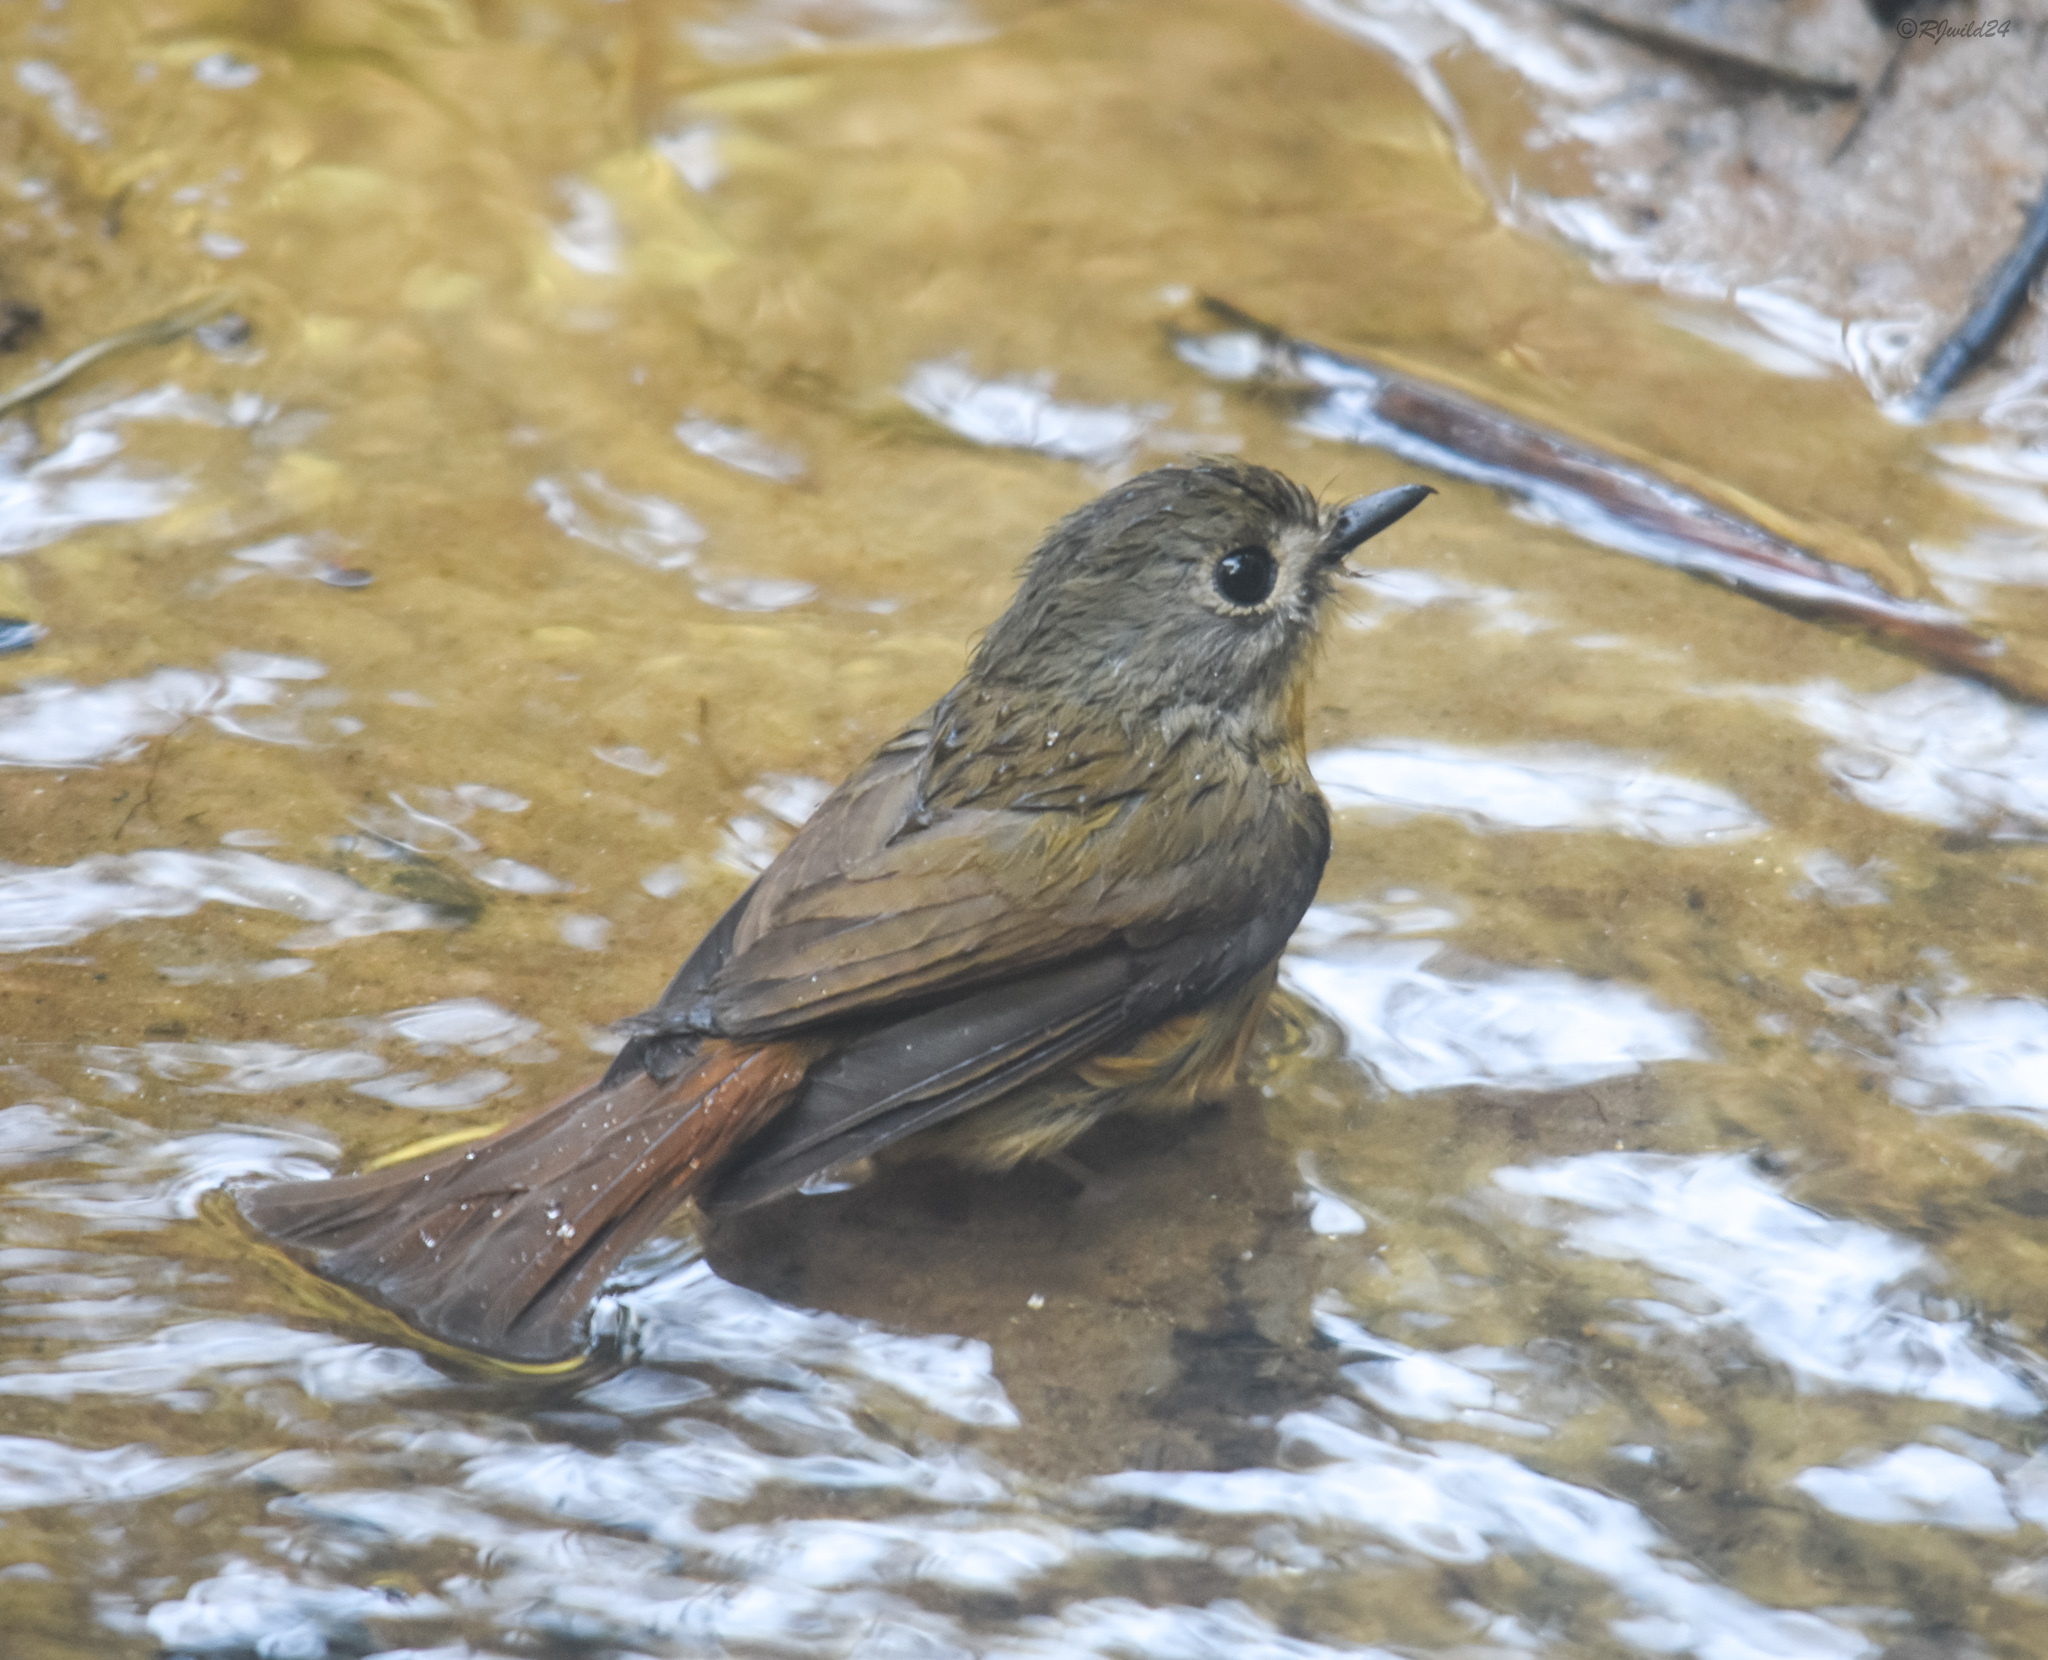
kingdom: Animalia
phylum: Chordata
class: Aves
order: Passeriformes
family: Muscicapidae
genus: Cyornis
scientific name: Cyornis poliogenys
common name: Pale-chinned blue flycatcher
